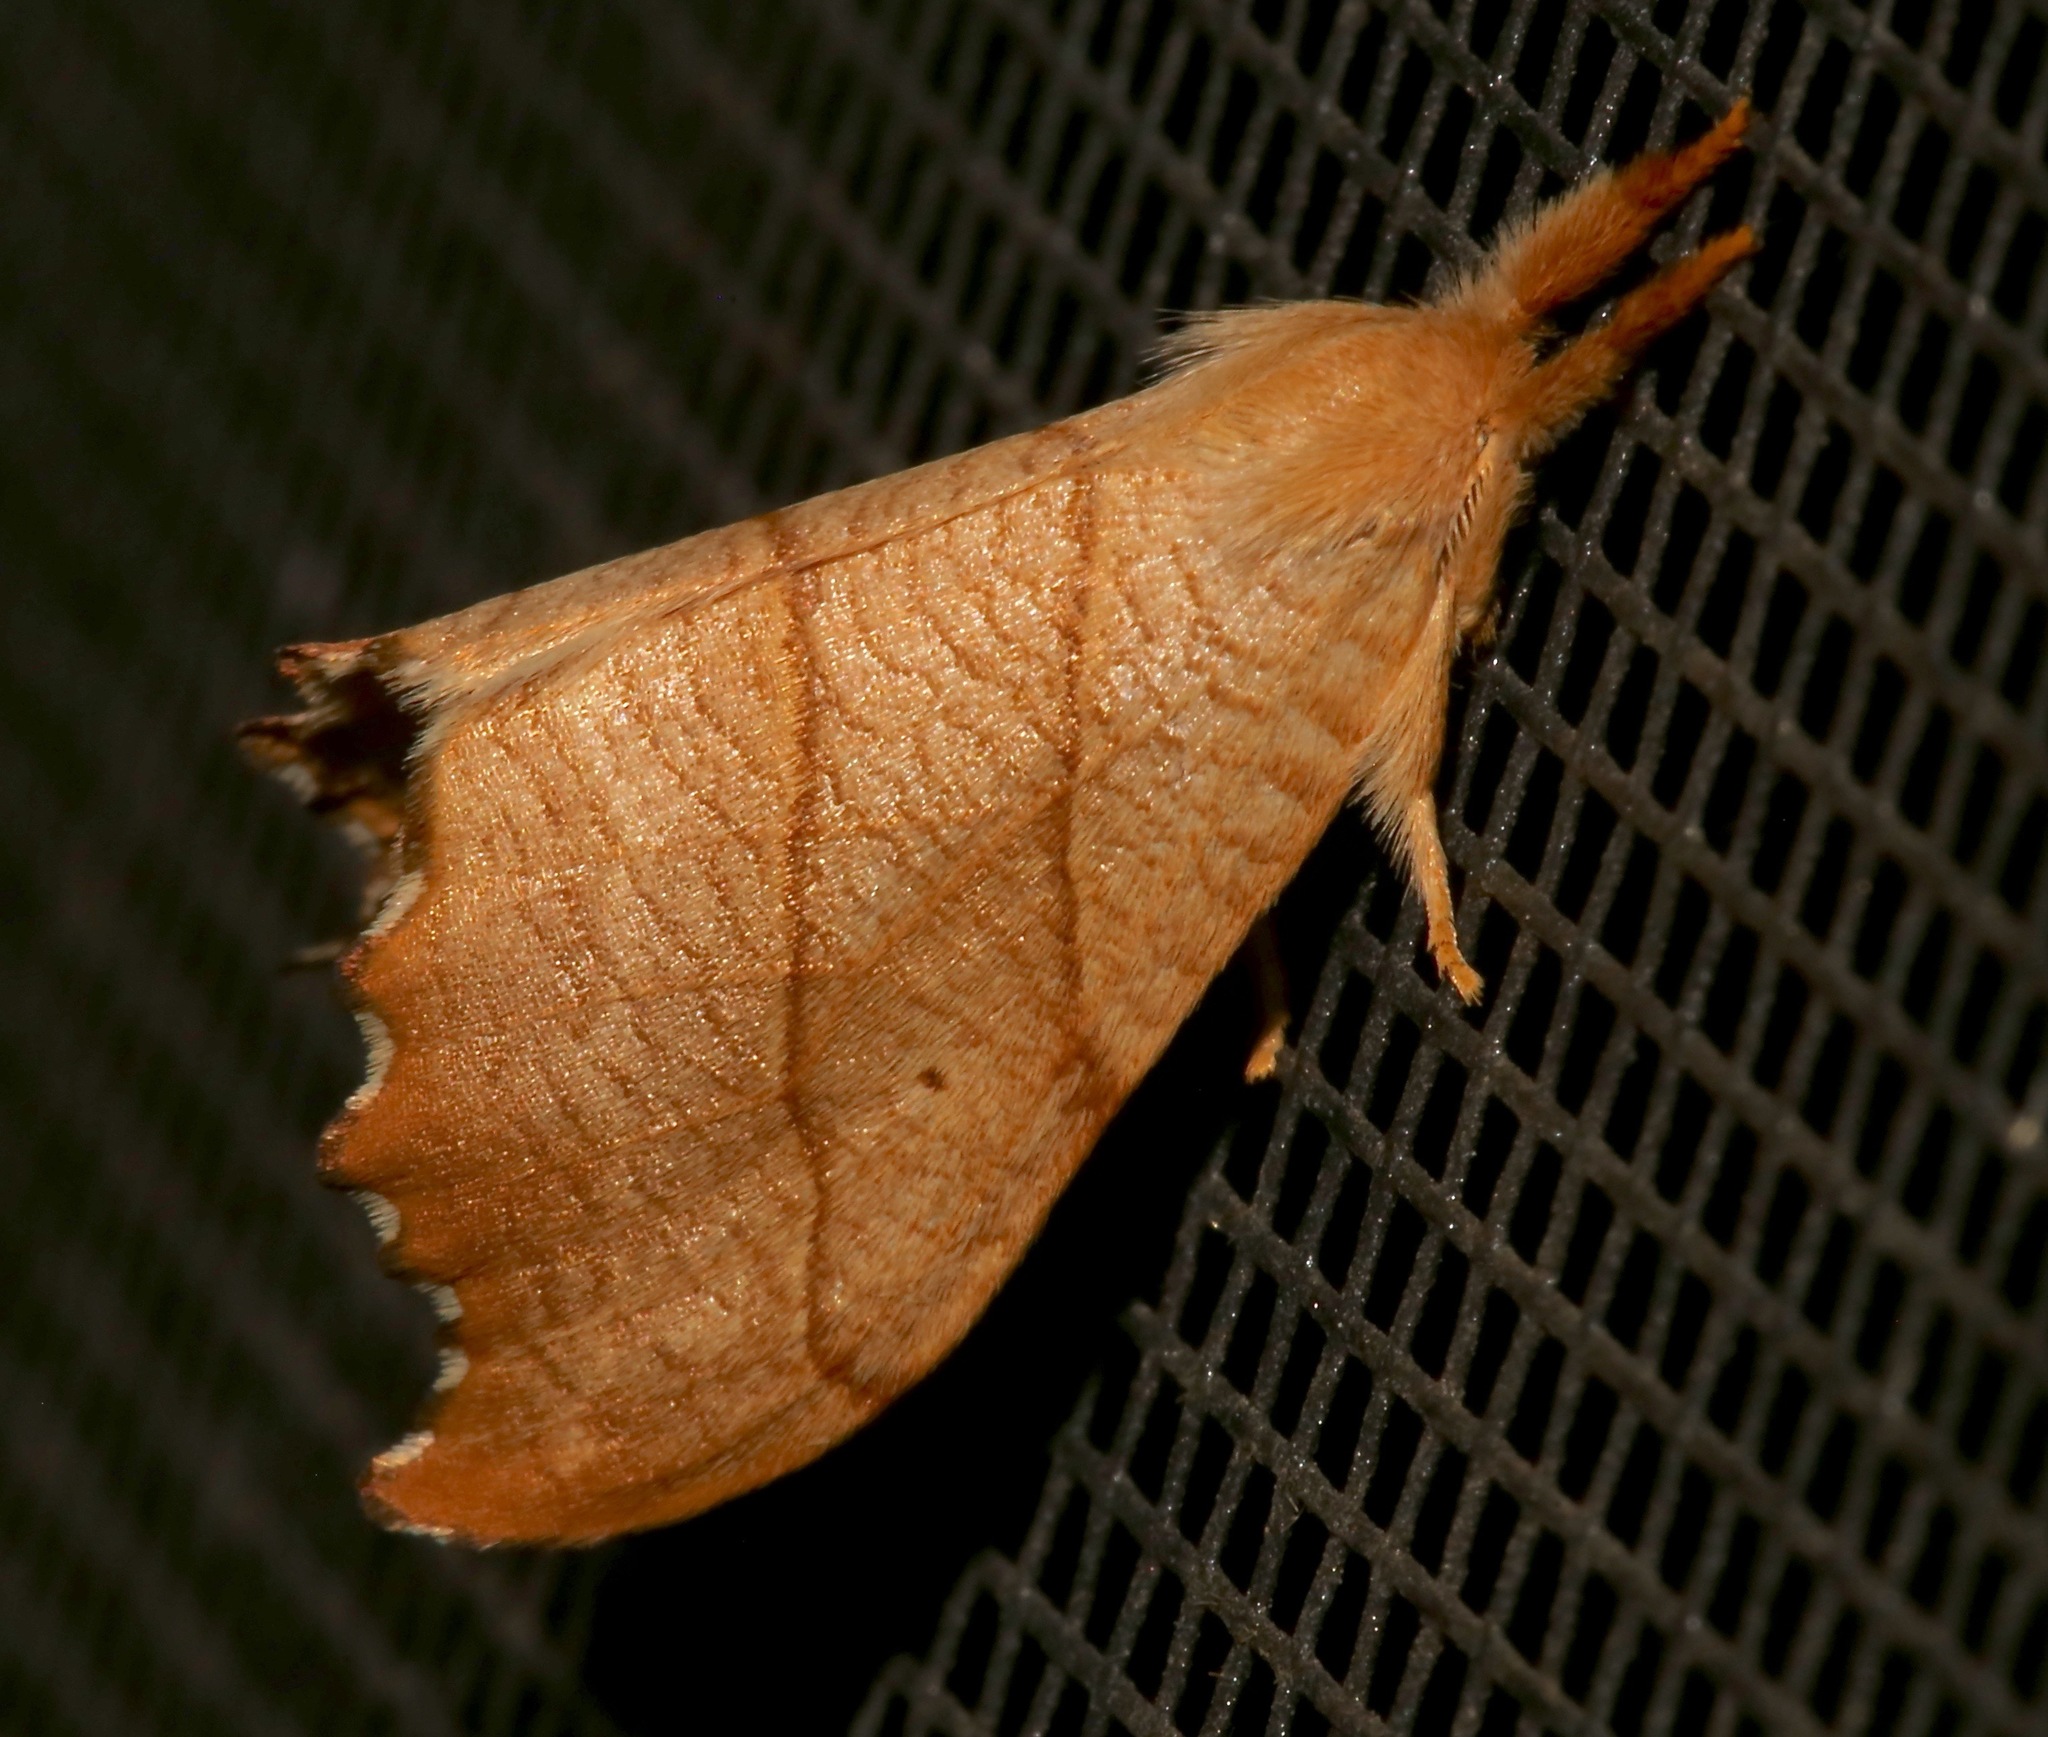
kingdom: Animalia
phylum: Arthropoda
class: Insecta
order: Lepidoptera
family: Drepanidae
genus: Falcaria
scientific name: Falcaria bilineata
